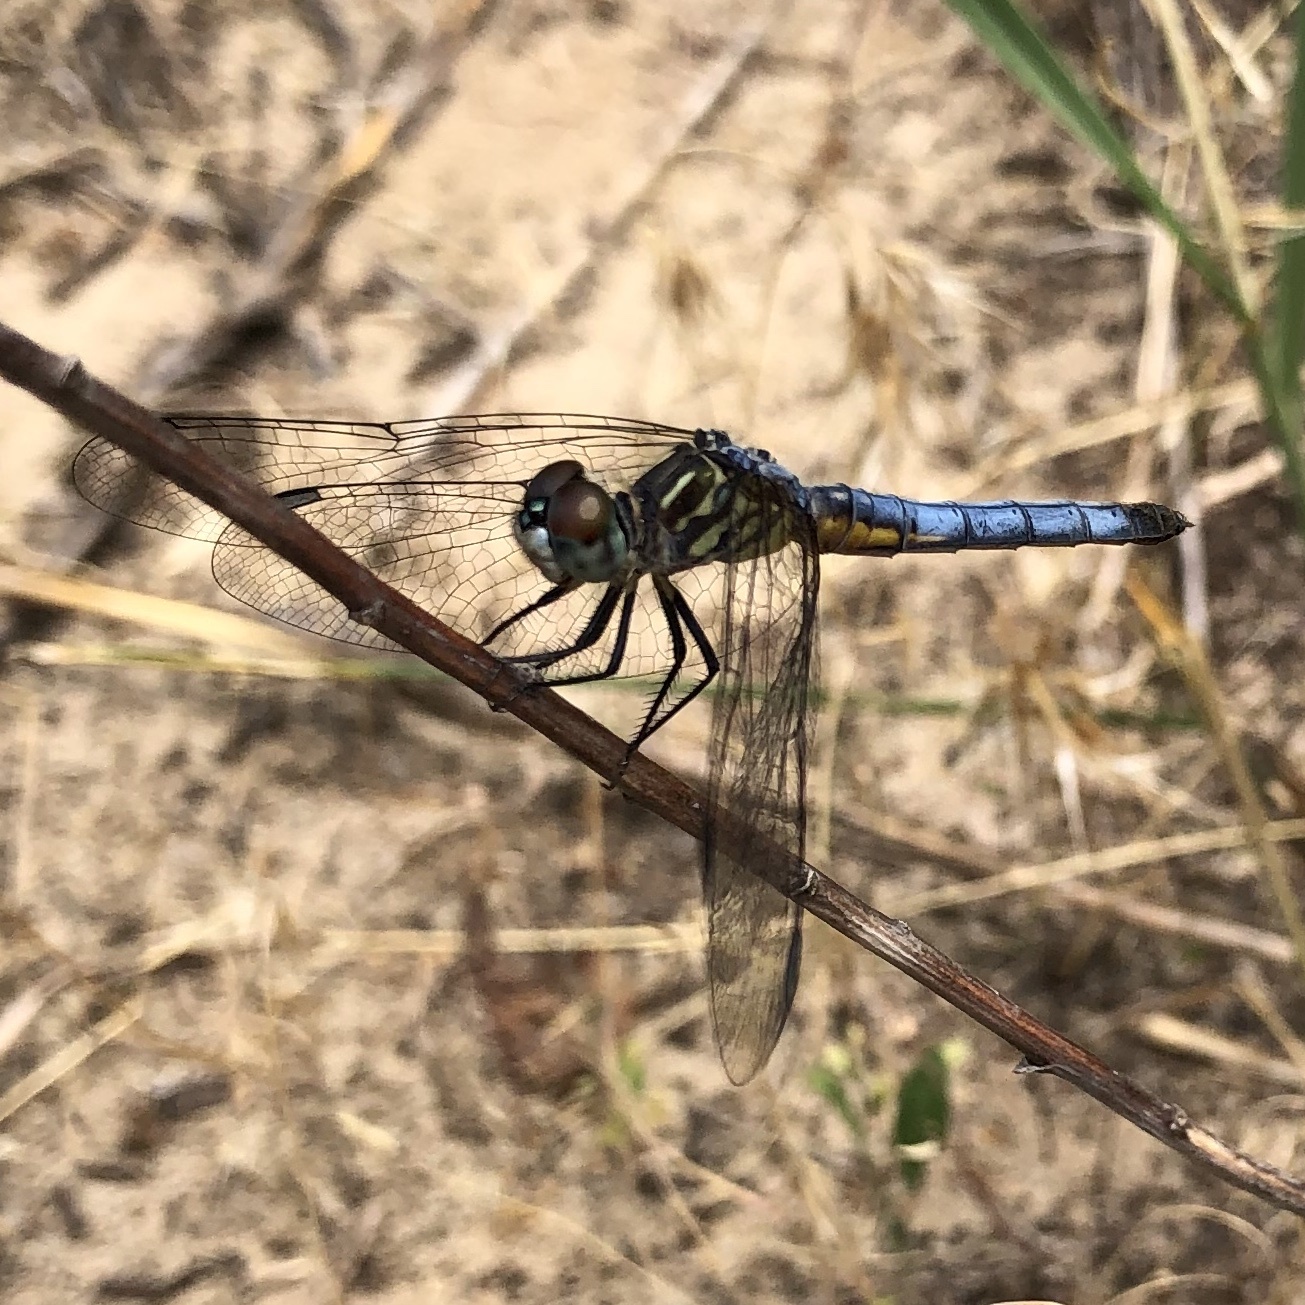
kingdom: Animalia
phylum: Arthropoda
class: Insecta
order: Odonata
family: Libellulidae
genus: Pachydiplax
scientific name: Pachydiplax longipennis
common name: Blue dasher
